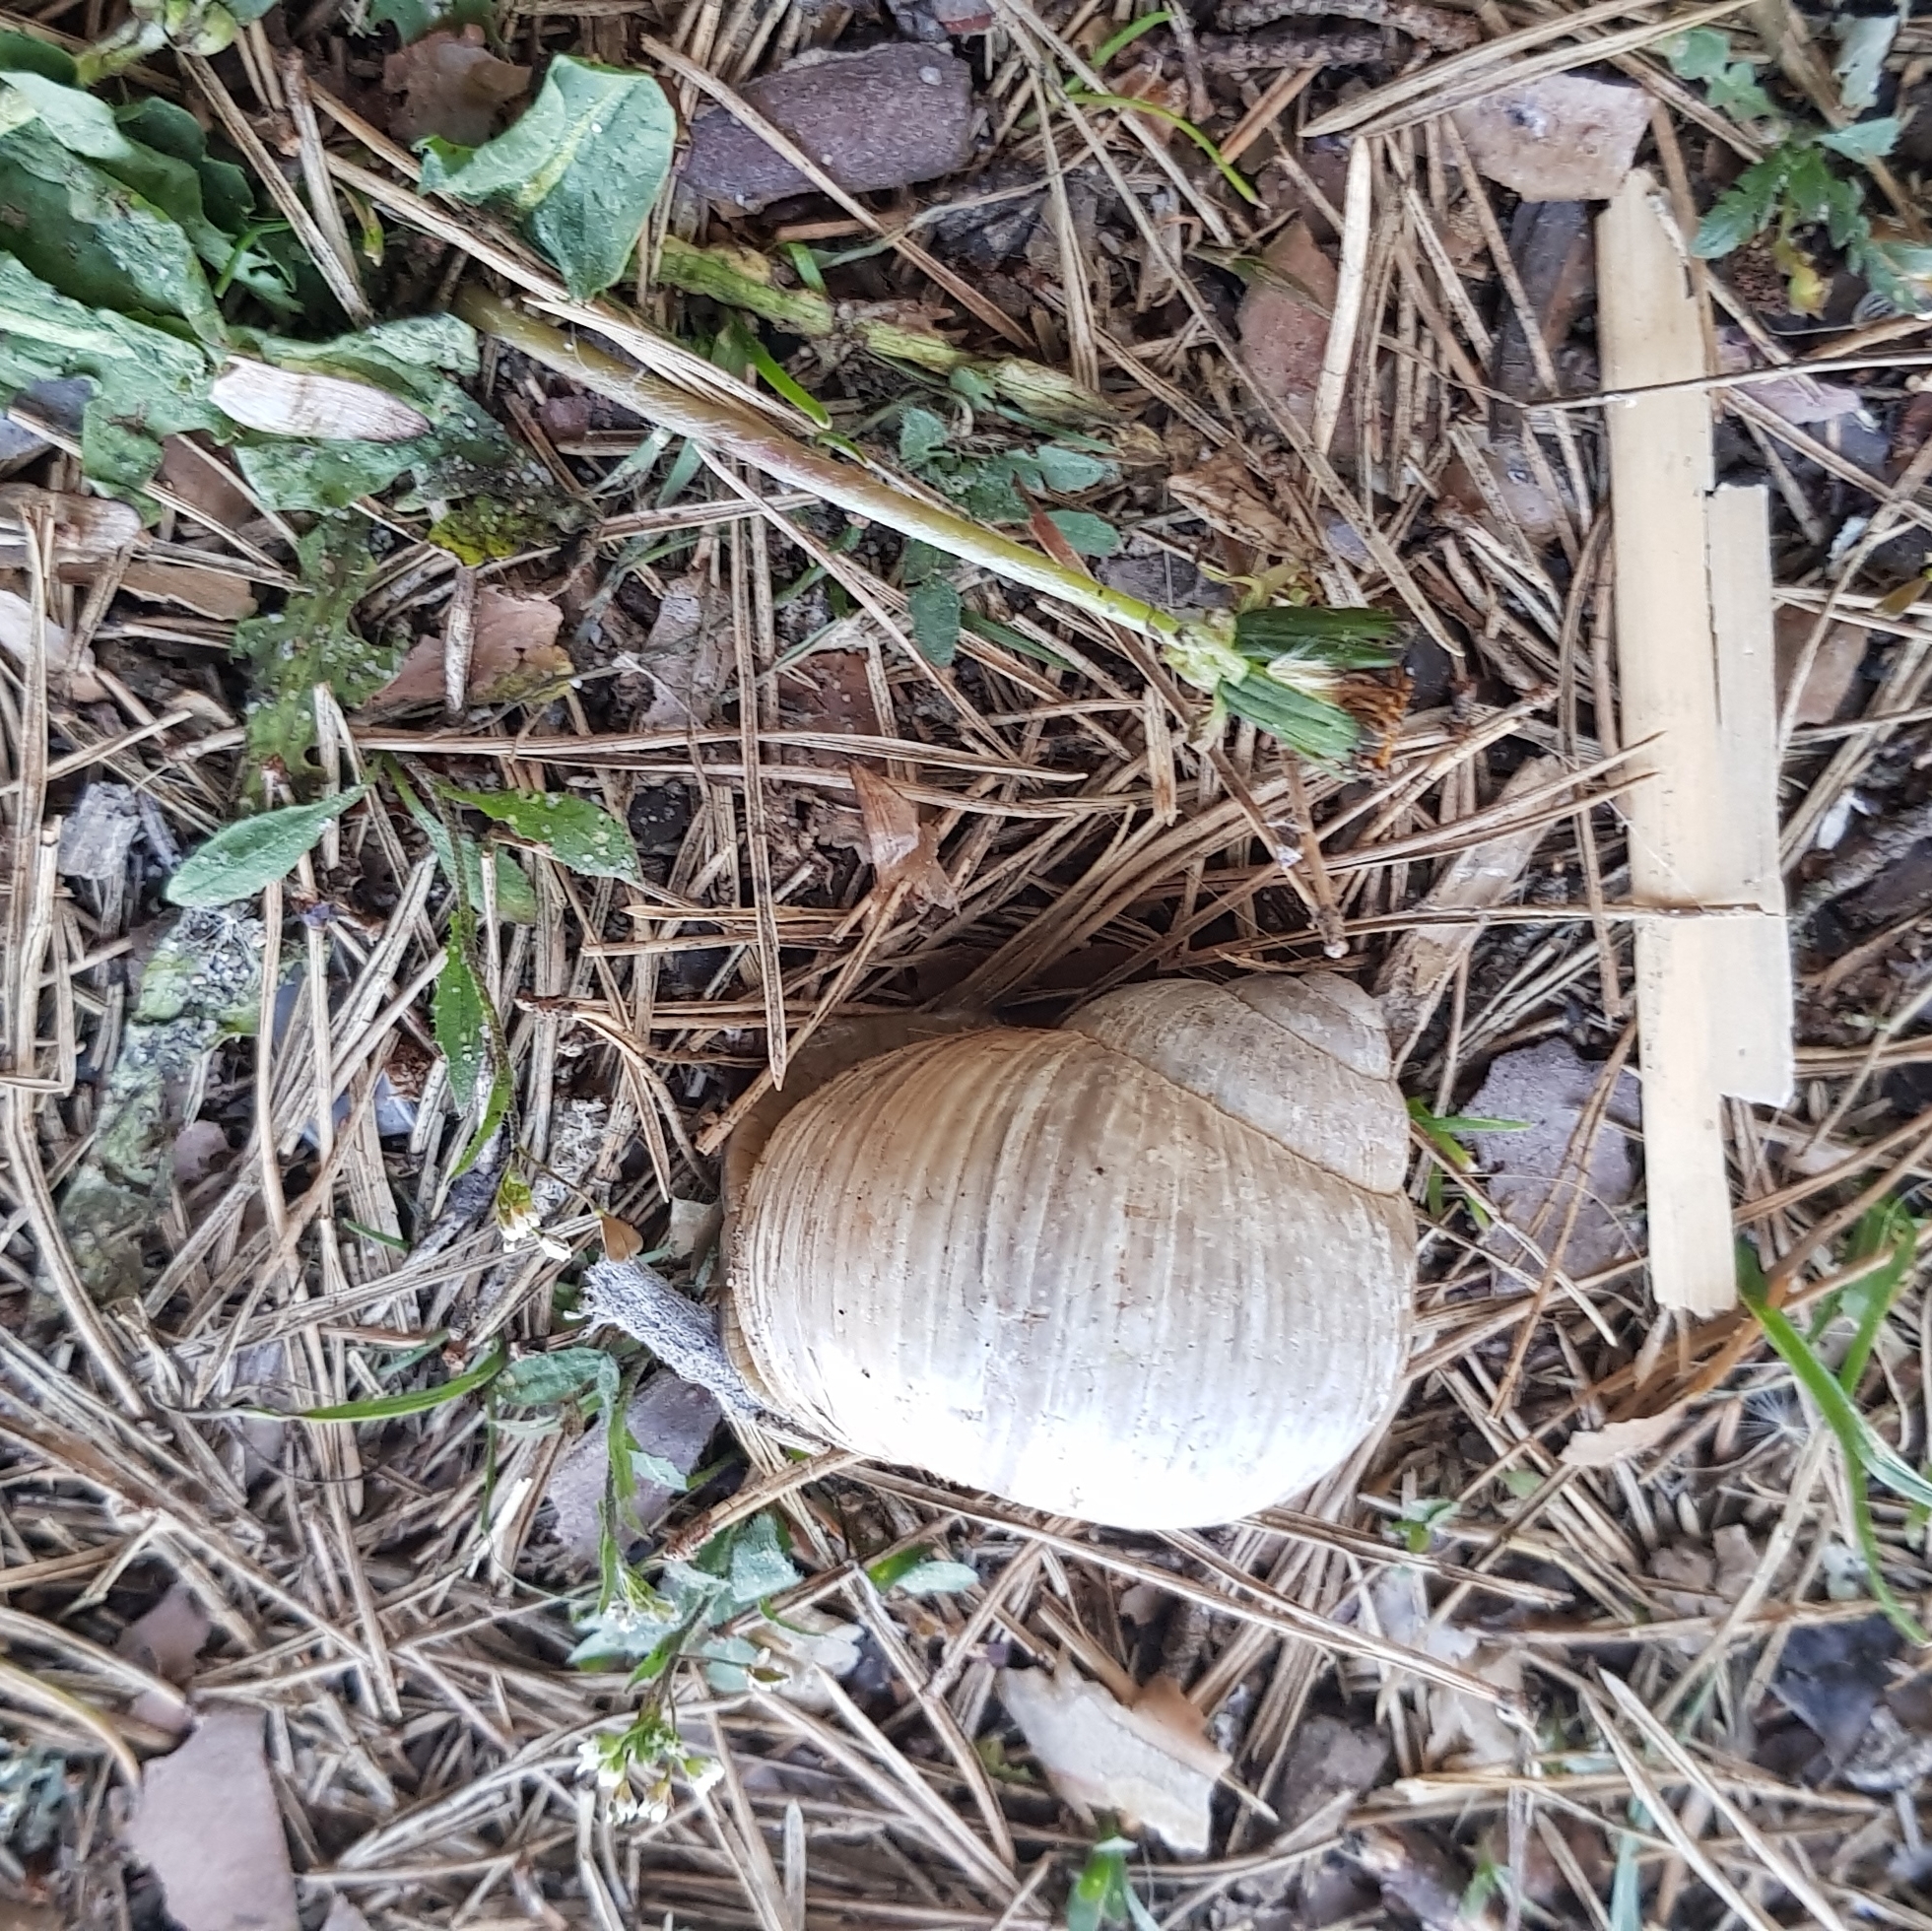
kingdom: Animalia
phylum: Mollusca
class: Gastropoda
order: Stylommatophora
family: Helicidae
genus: Helix
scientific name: Helix pomatia
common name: Roman snail
